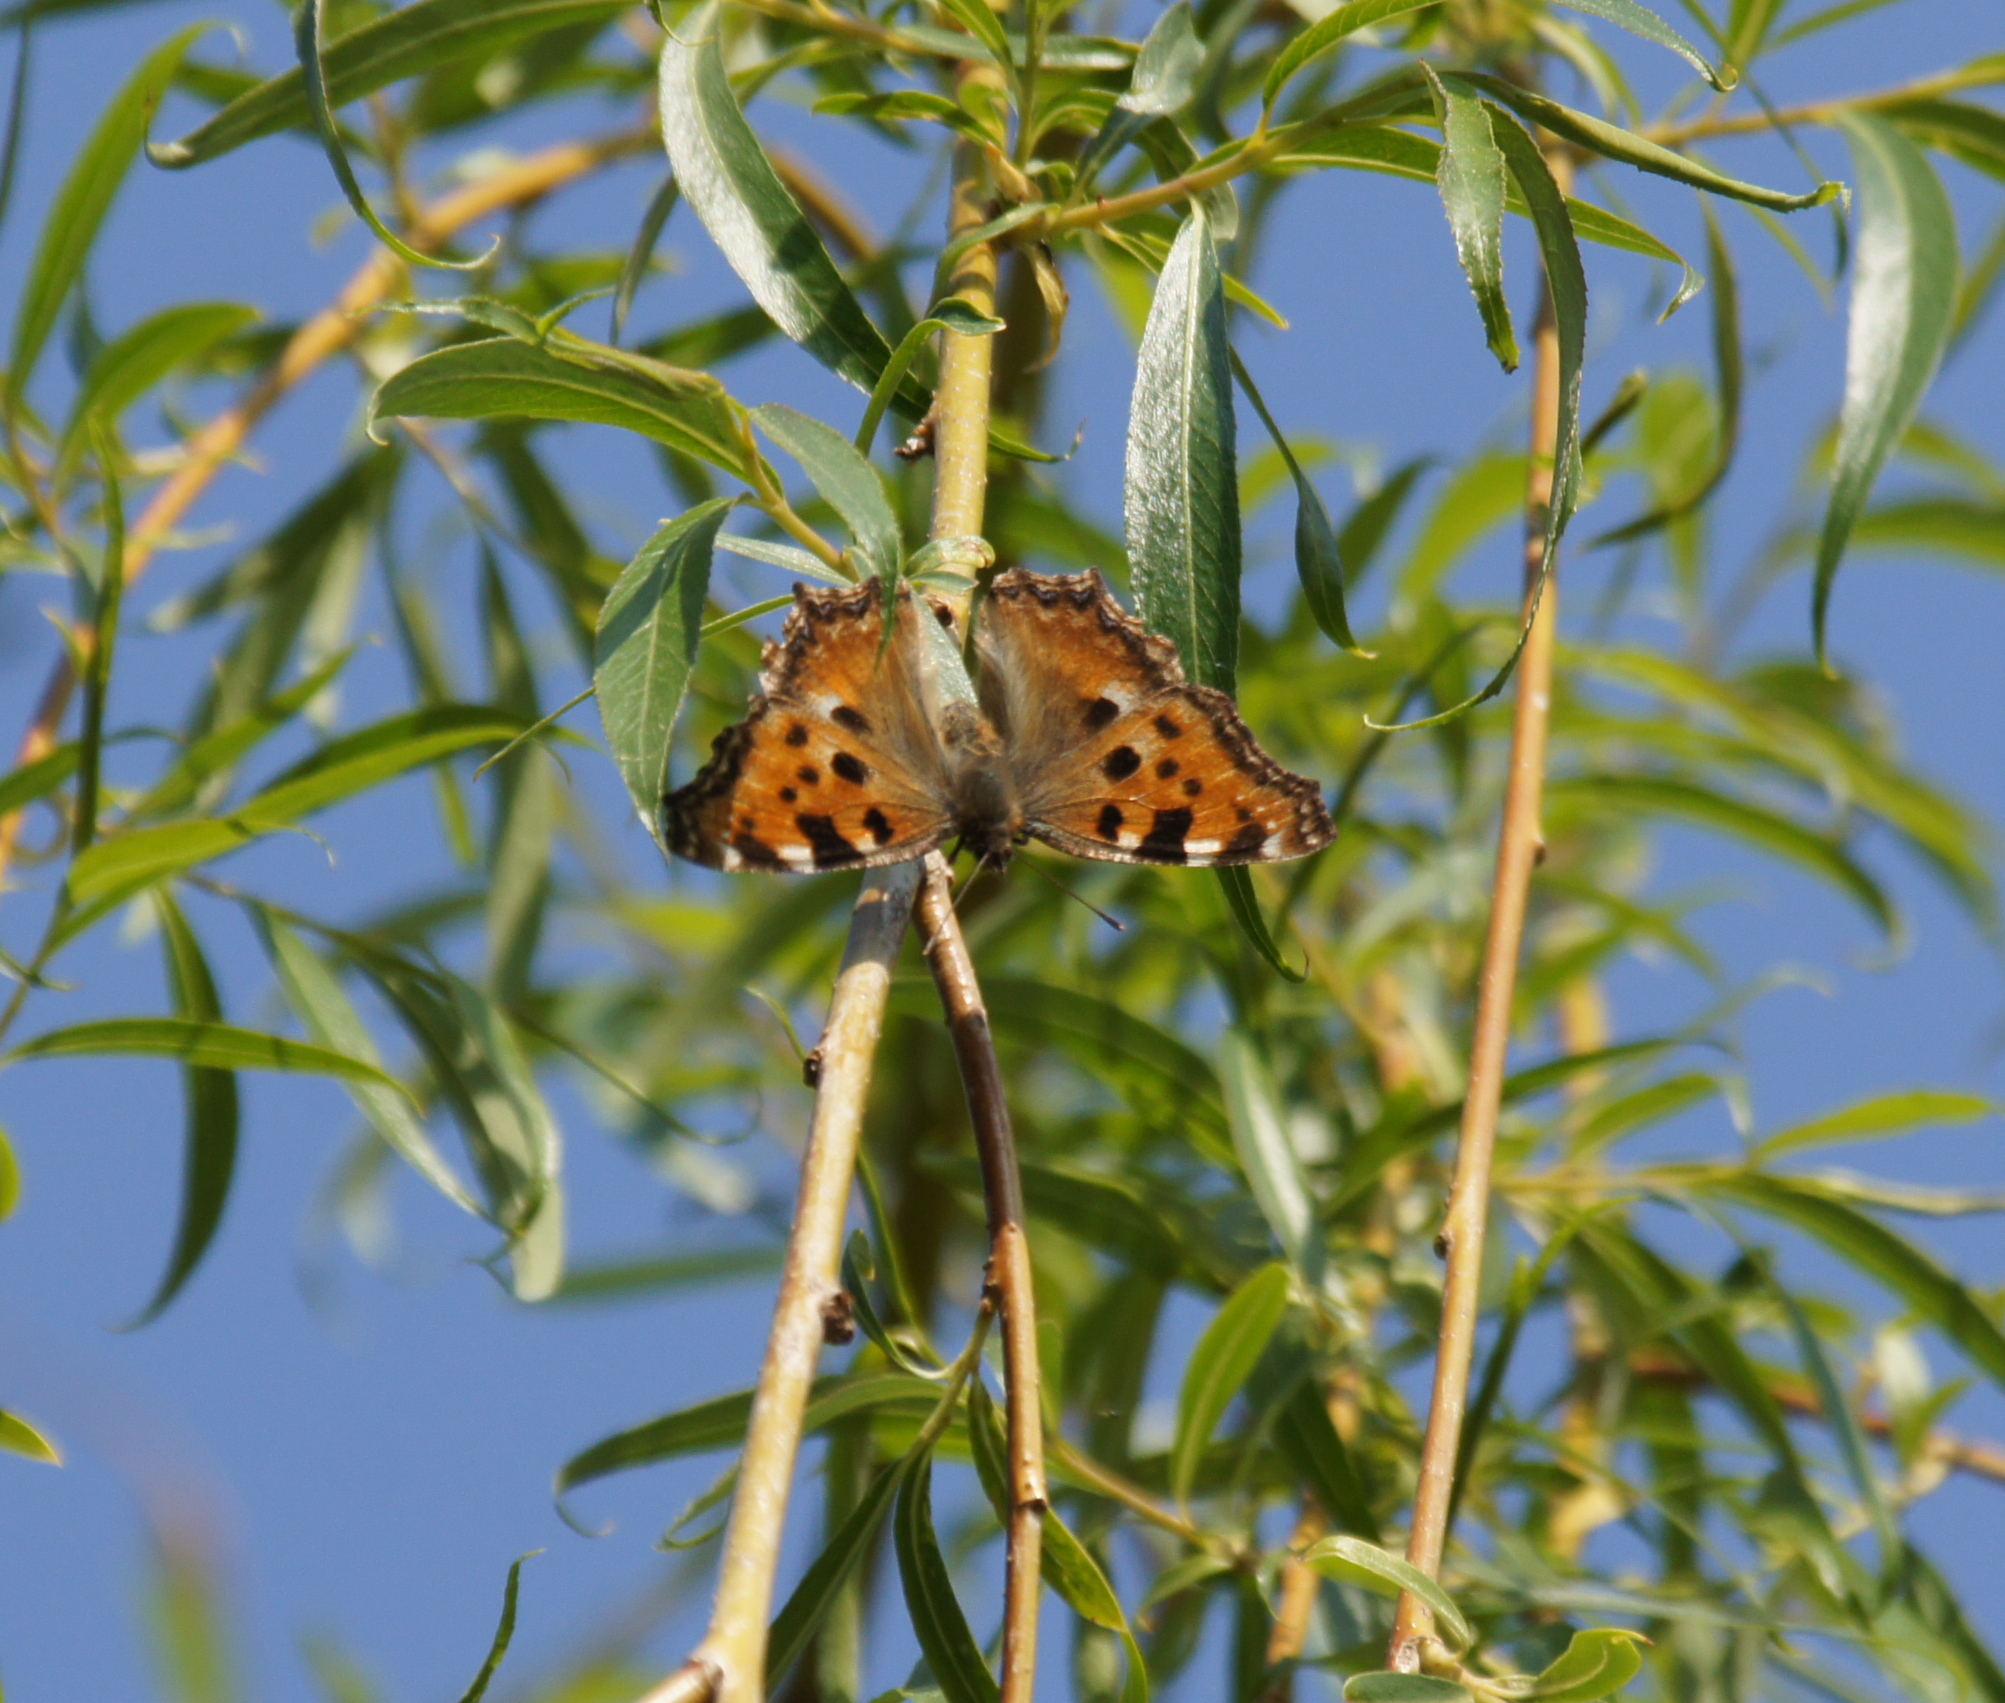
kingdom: Animalia
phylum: Arthropoda
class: Insecta
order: Lepidoptera
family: Nymphalidae
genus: Nymphalis
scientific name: Nymphalis polychloros
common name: Large tortoiseshell
